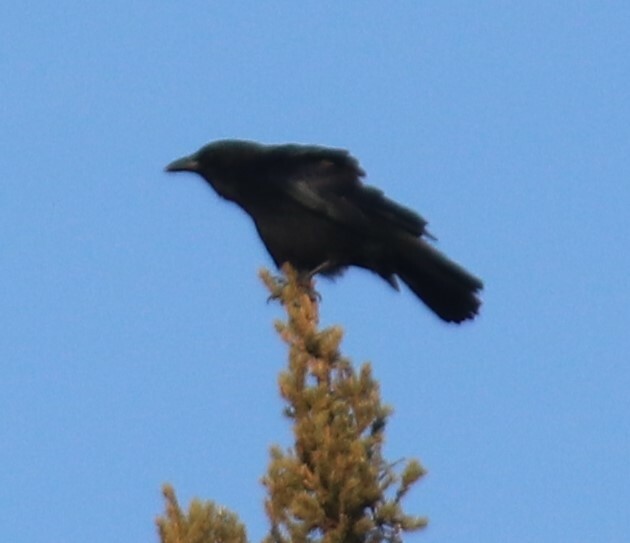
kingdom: Animalia
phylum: Chordata
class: Aves
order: Passeriformes
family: Corvidae
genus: Corvus
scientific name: Corvus brachyrhynchos
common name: American crow
